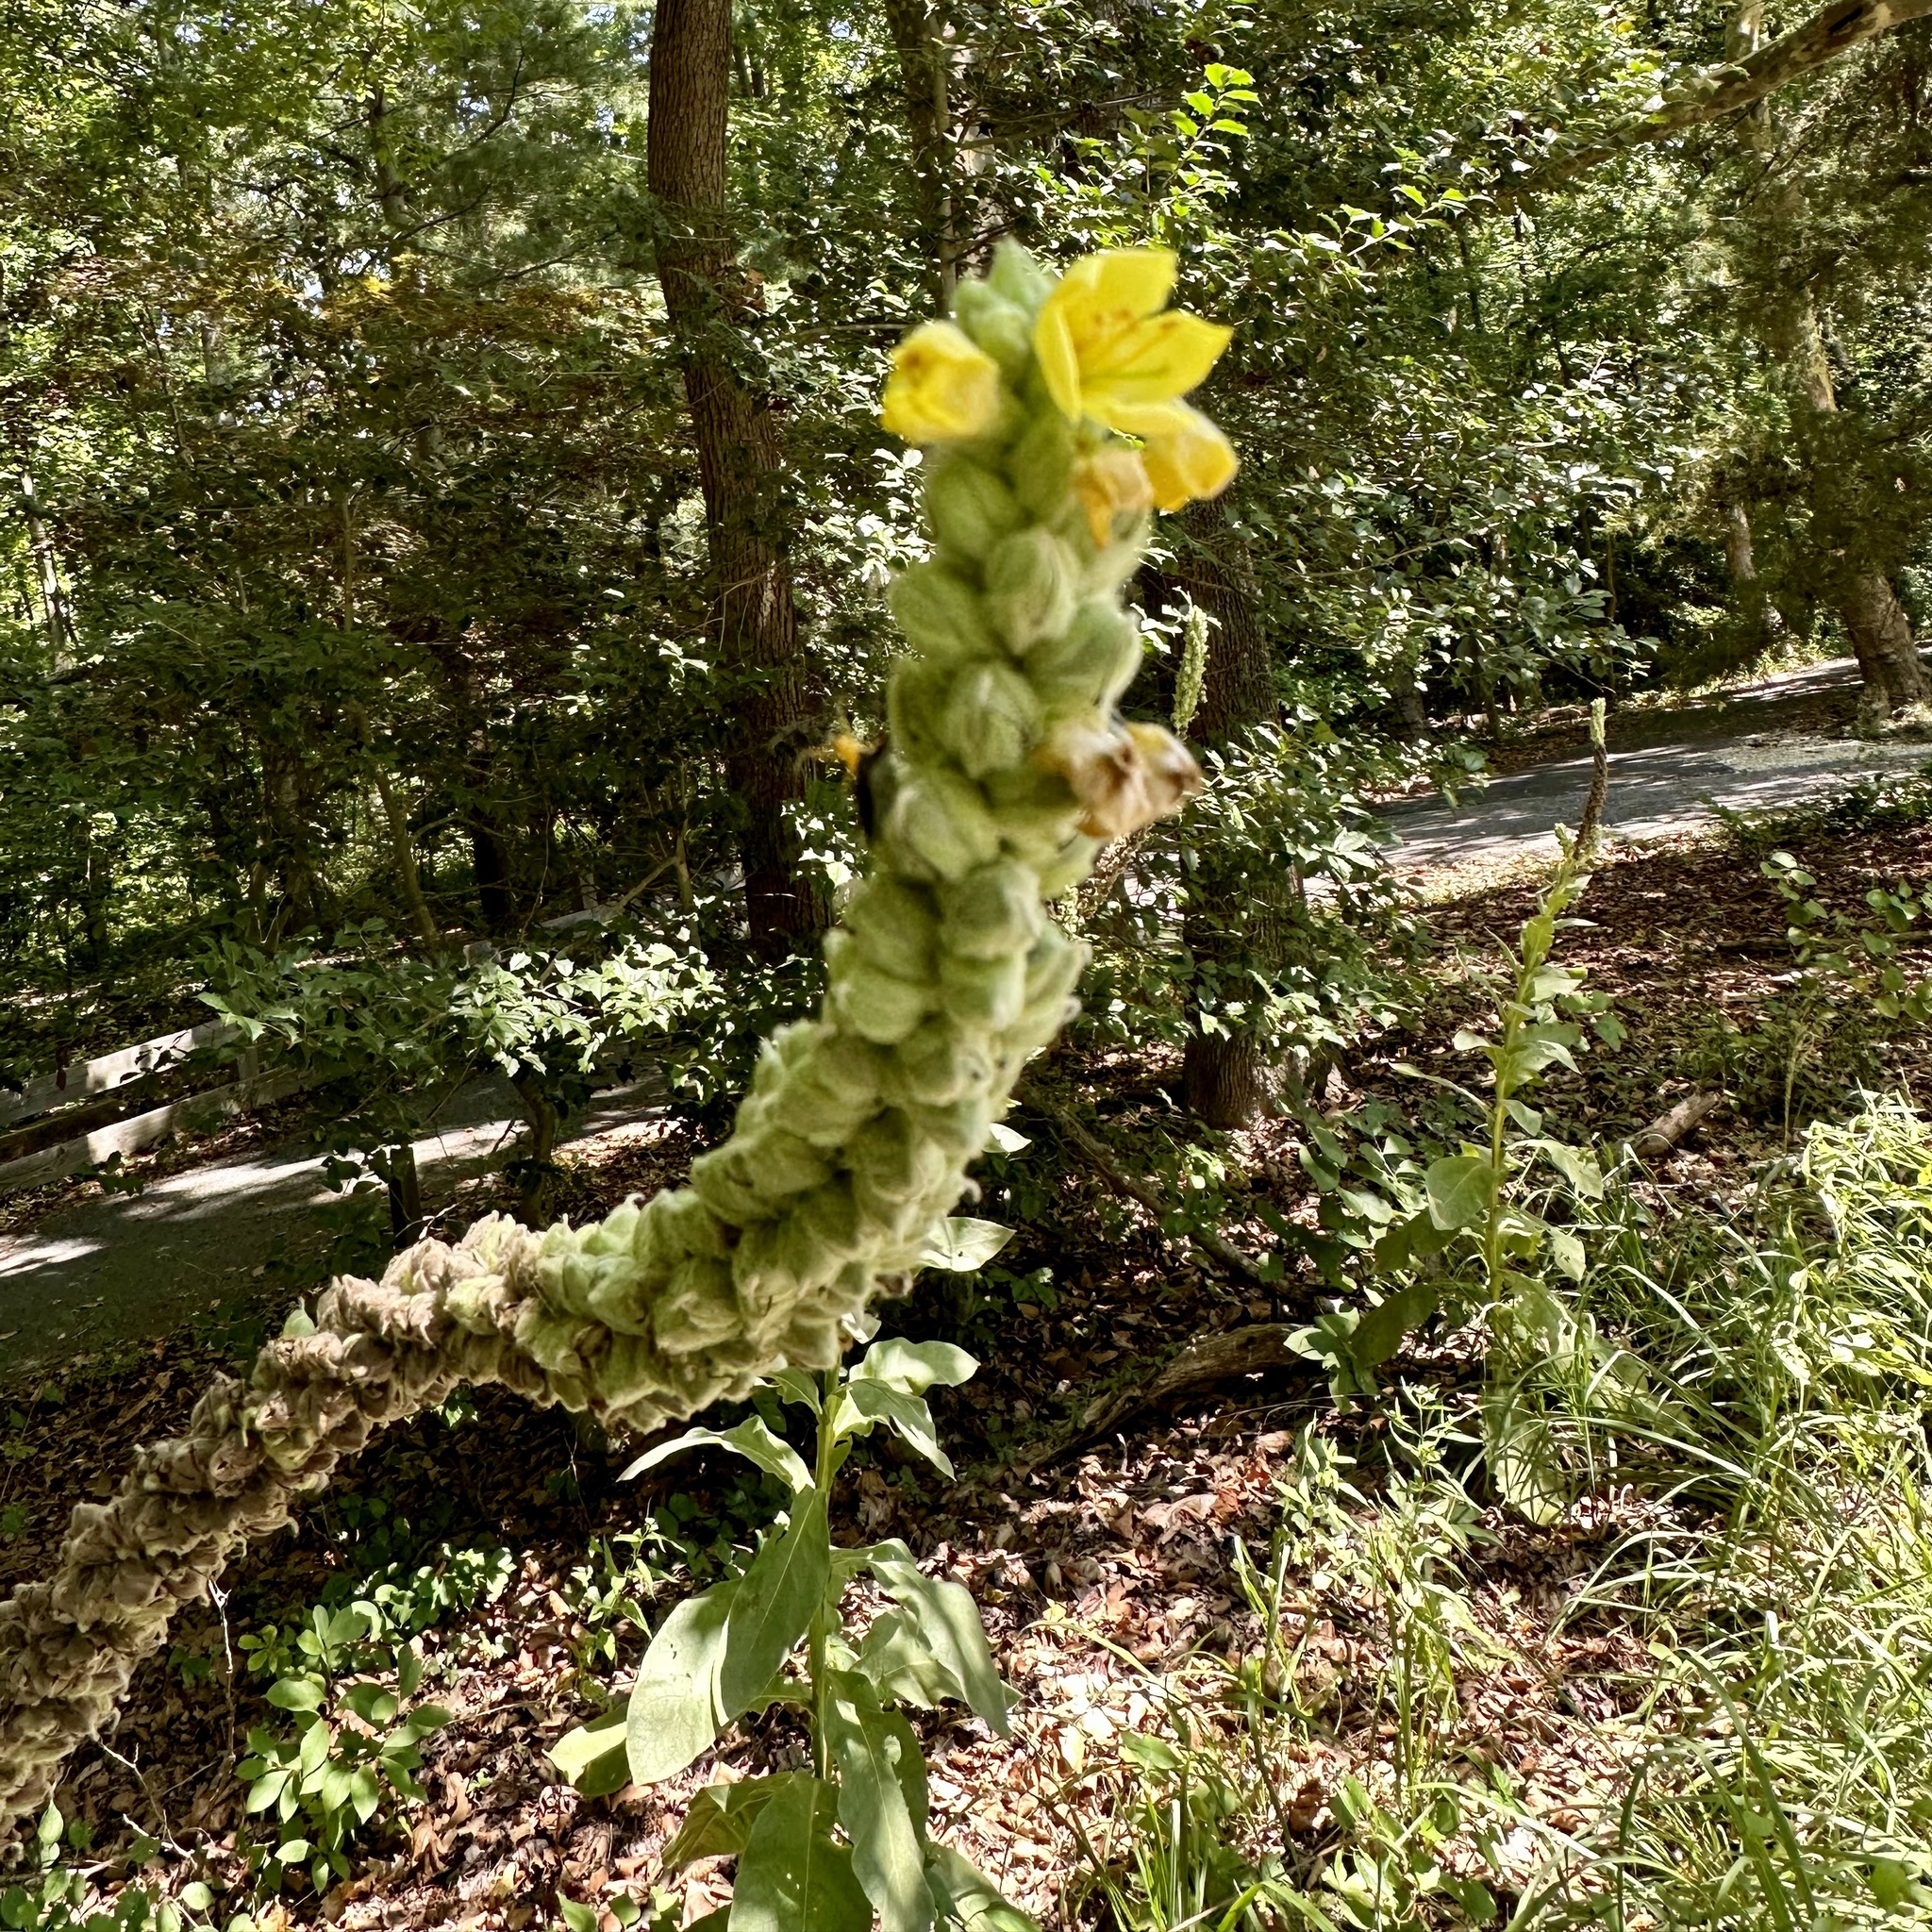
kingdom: Plantae
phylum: Tracheophyta
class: Magnoliopsida
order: Lamiales
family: Scrophulariaceae
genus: Verbascum
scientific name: Verbascum thapsus
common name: Common mullein
